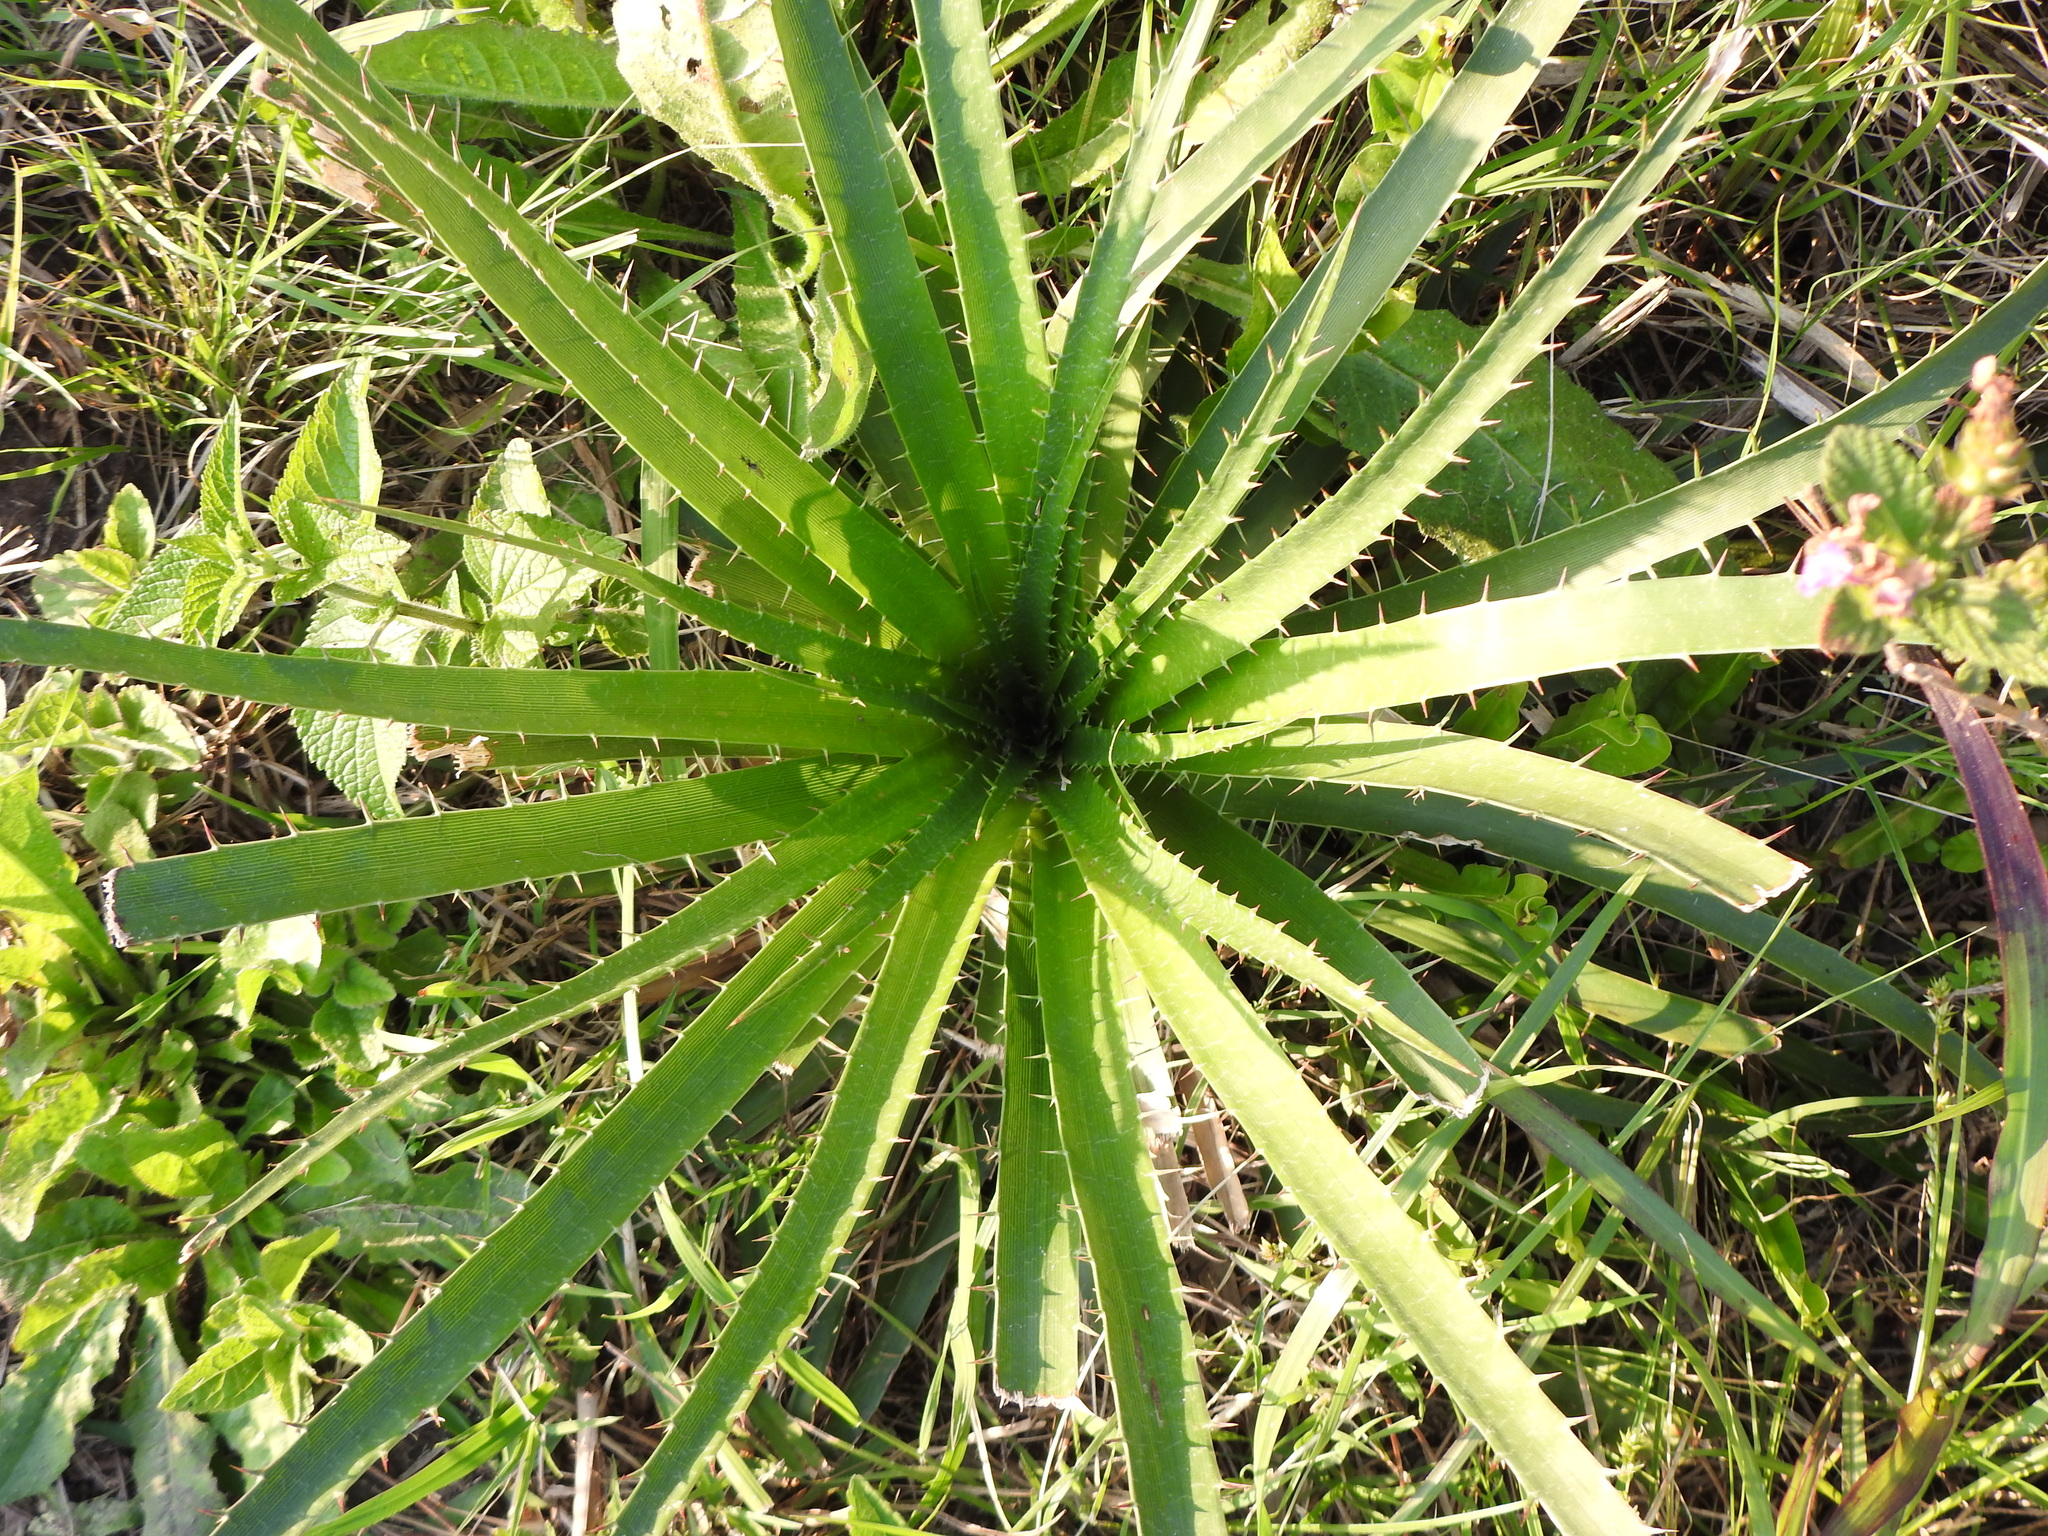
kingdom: Plantae
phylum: Tracheophyta
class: Magnoliopsida
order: Apiales
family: Apiaceae
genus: Eryngium
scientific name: Eryngium humboldtii
